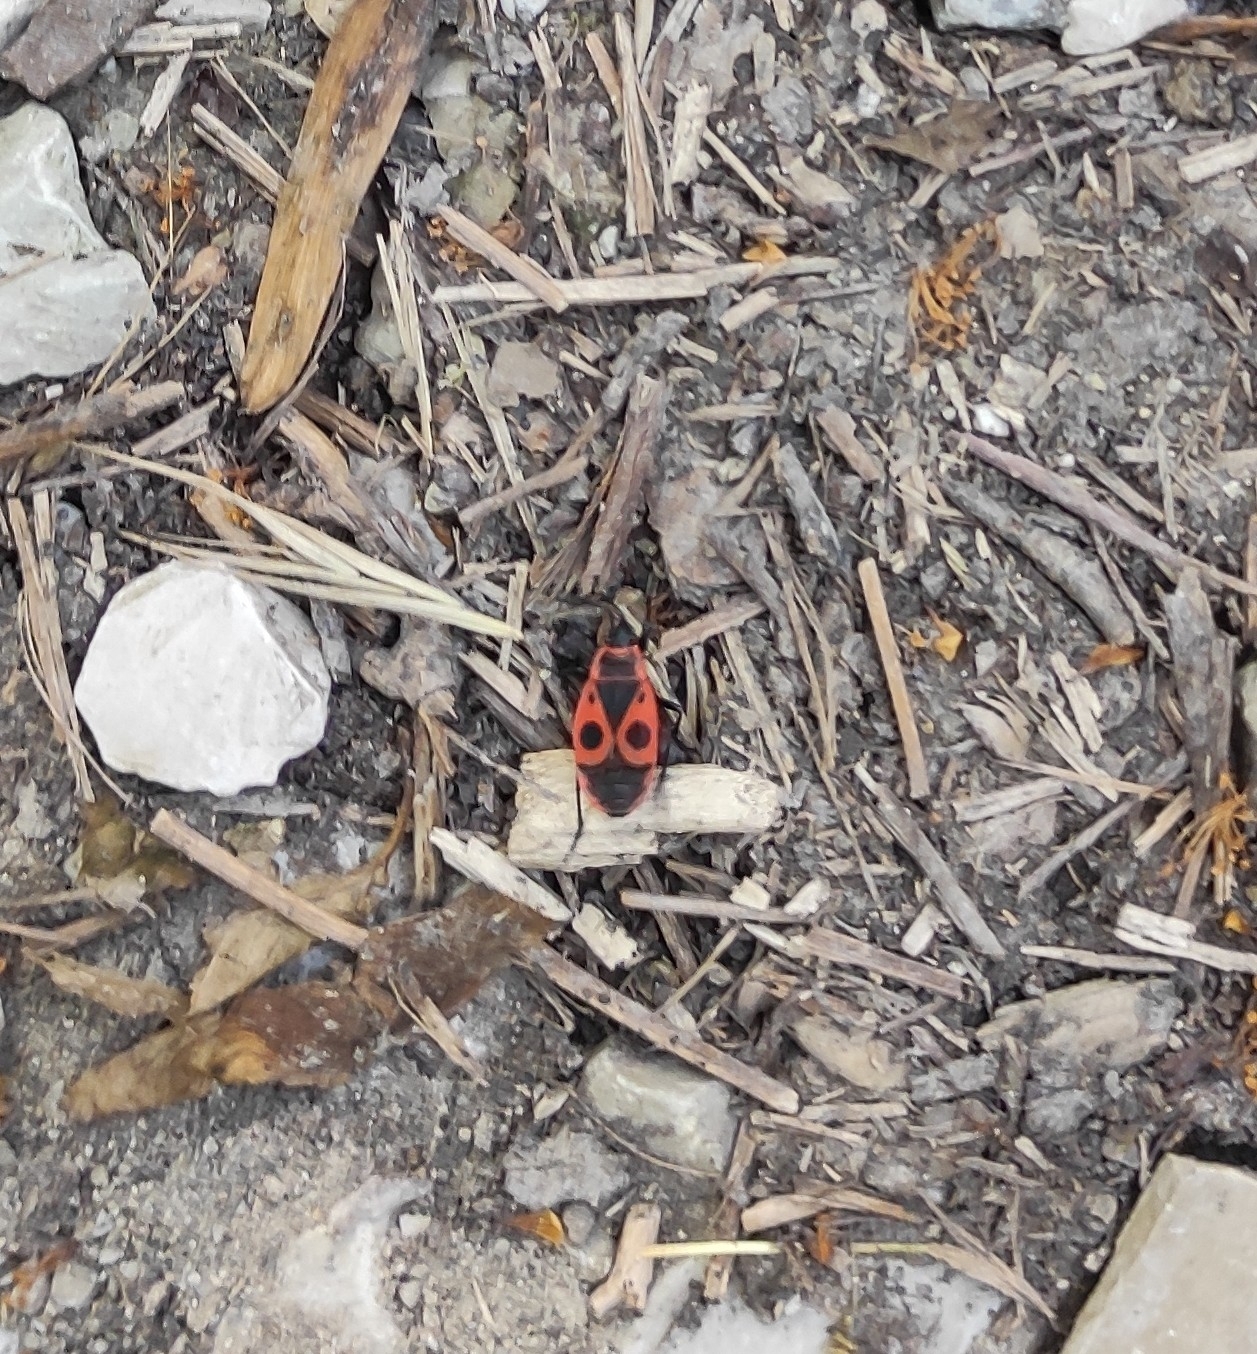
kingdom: Animalia
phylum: Arthropoda
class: Insecta
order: Hemiptera
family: Pyrrhocoridae
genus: Pyrrhocoris
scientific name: Pyrrhocoris apterus
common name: Firebug
